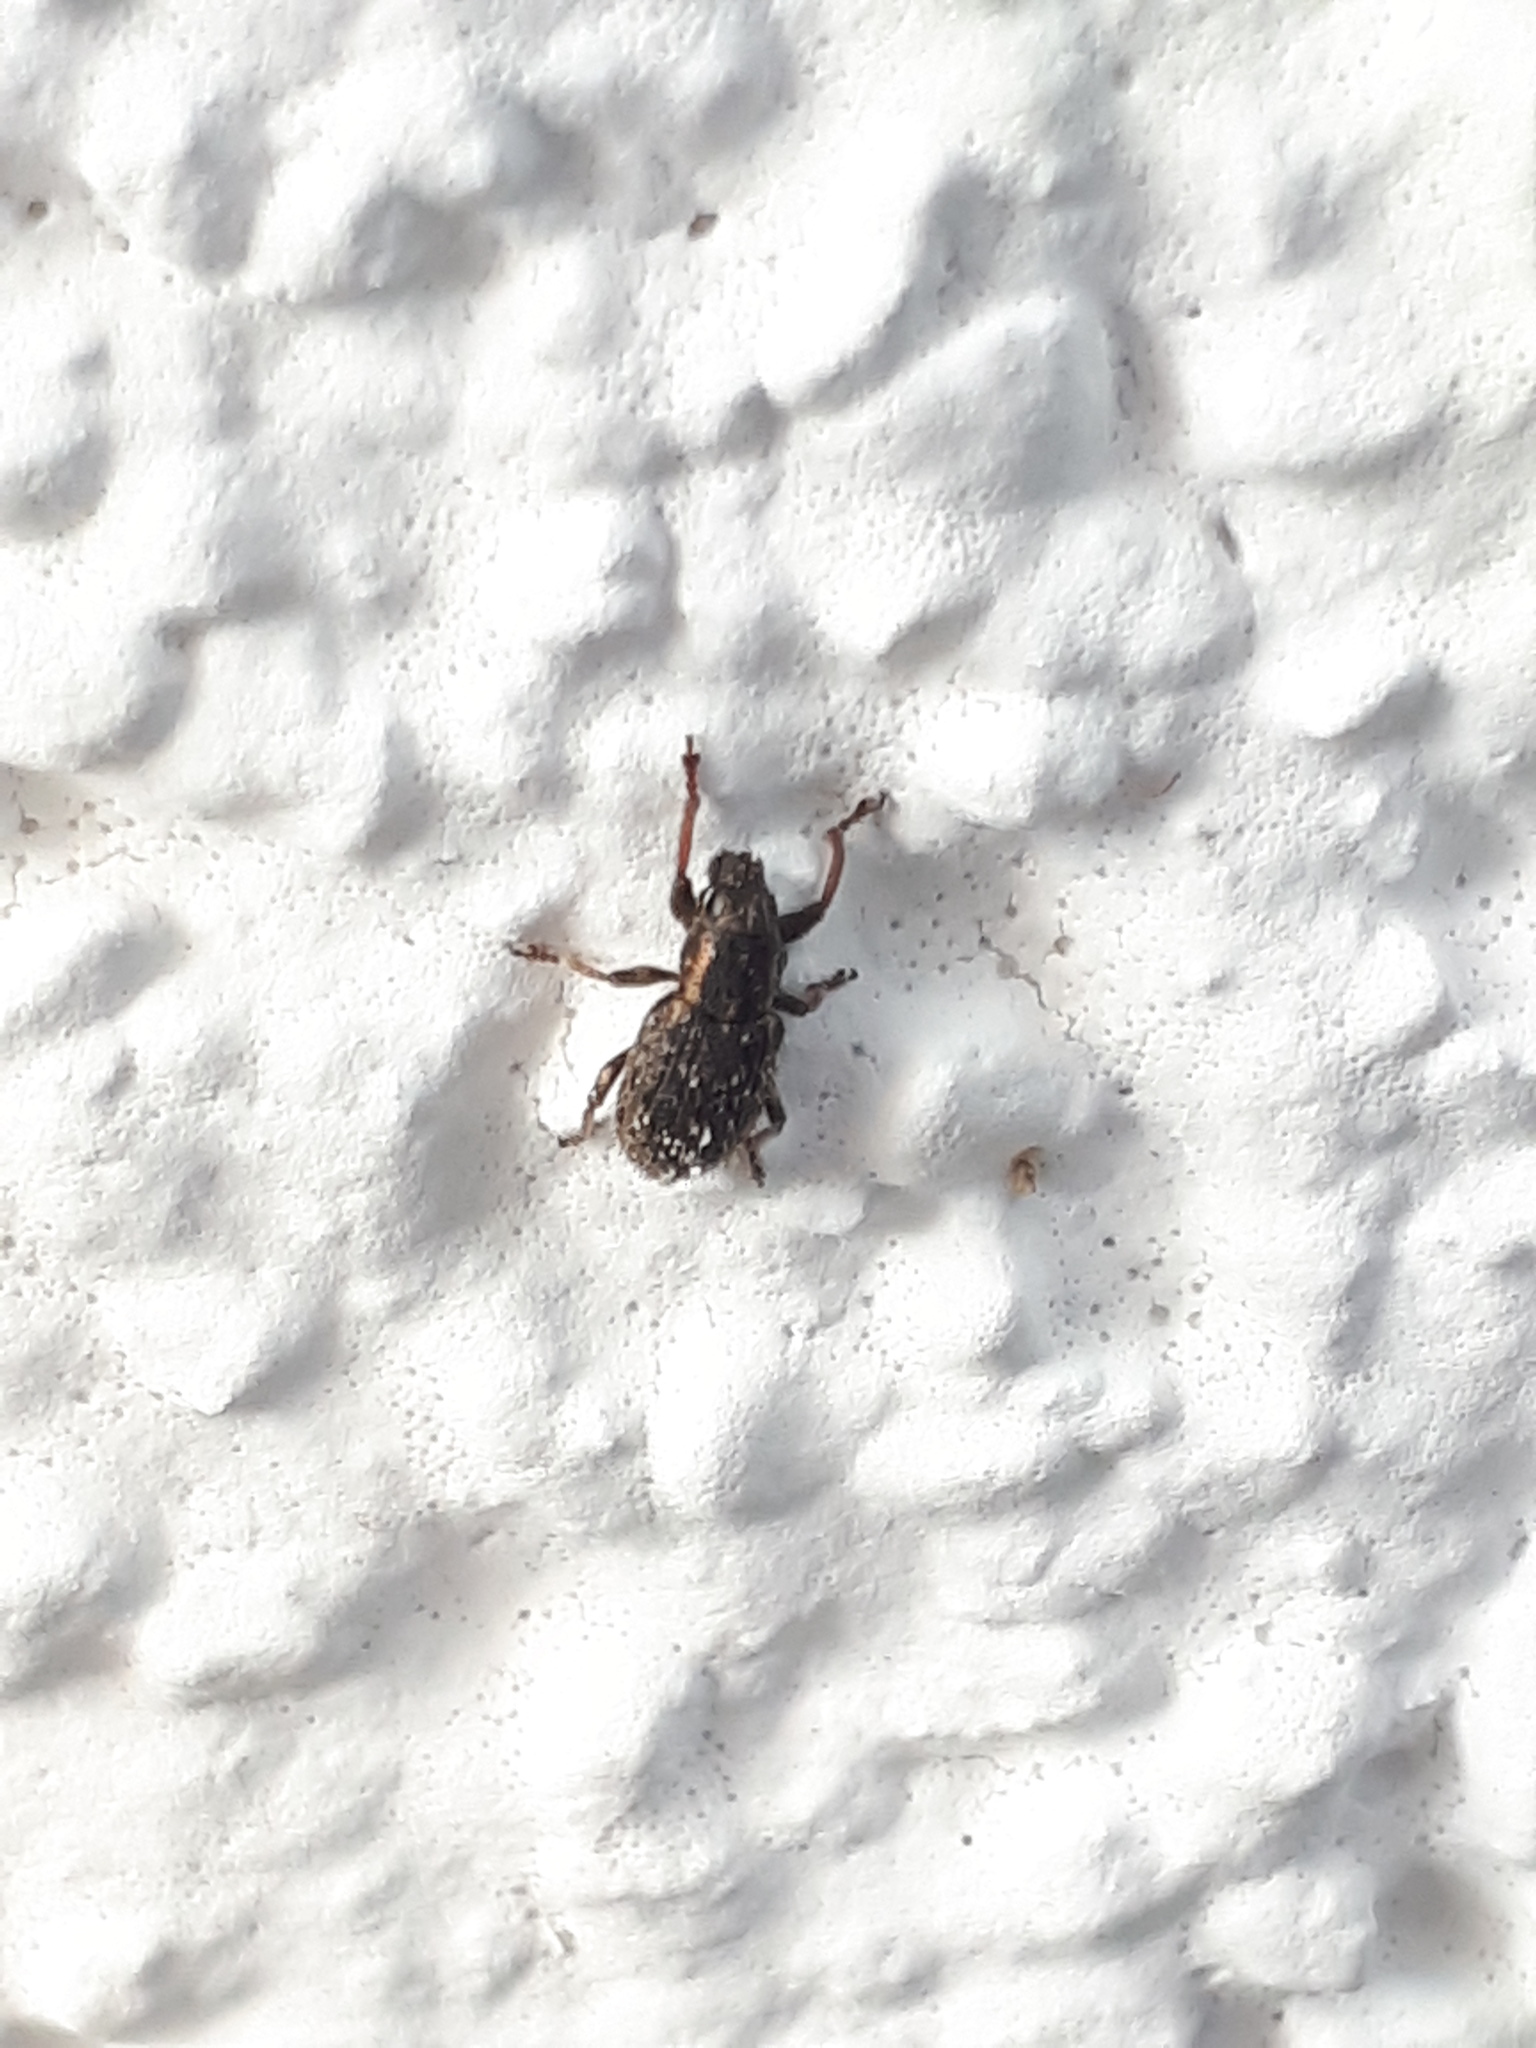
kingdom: Animalia
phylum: Arthropoda
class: Insecta
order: Coleoptera
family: Curculionidae
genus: Sitona
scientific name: Sitona hispidulus
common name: Clover weevil
